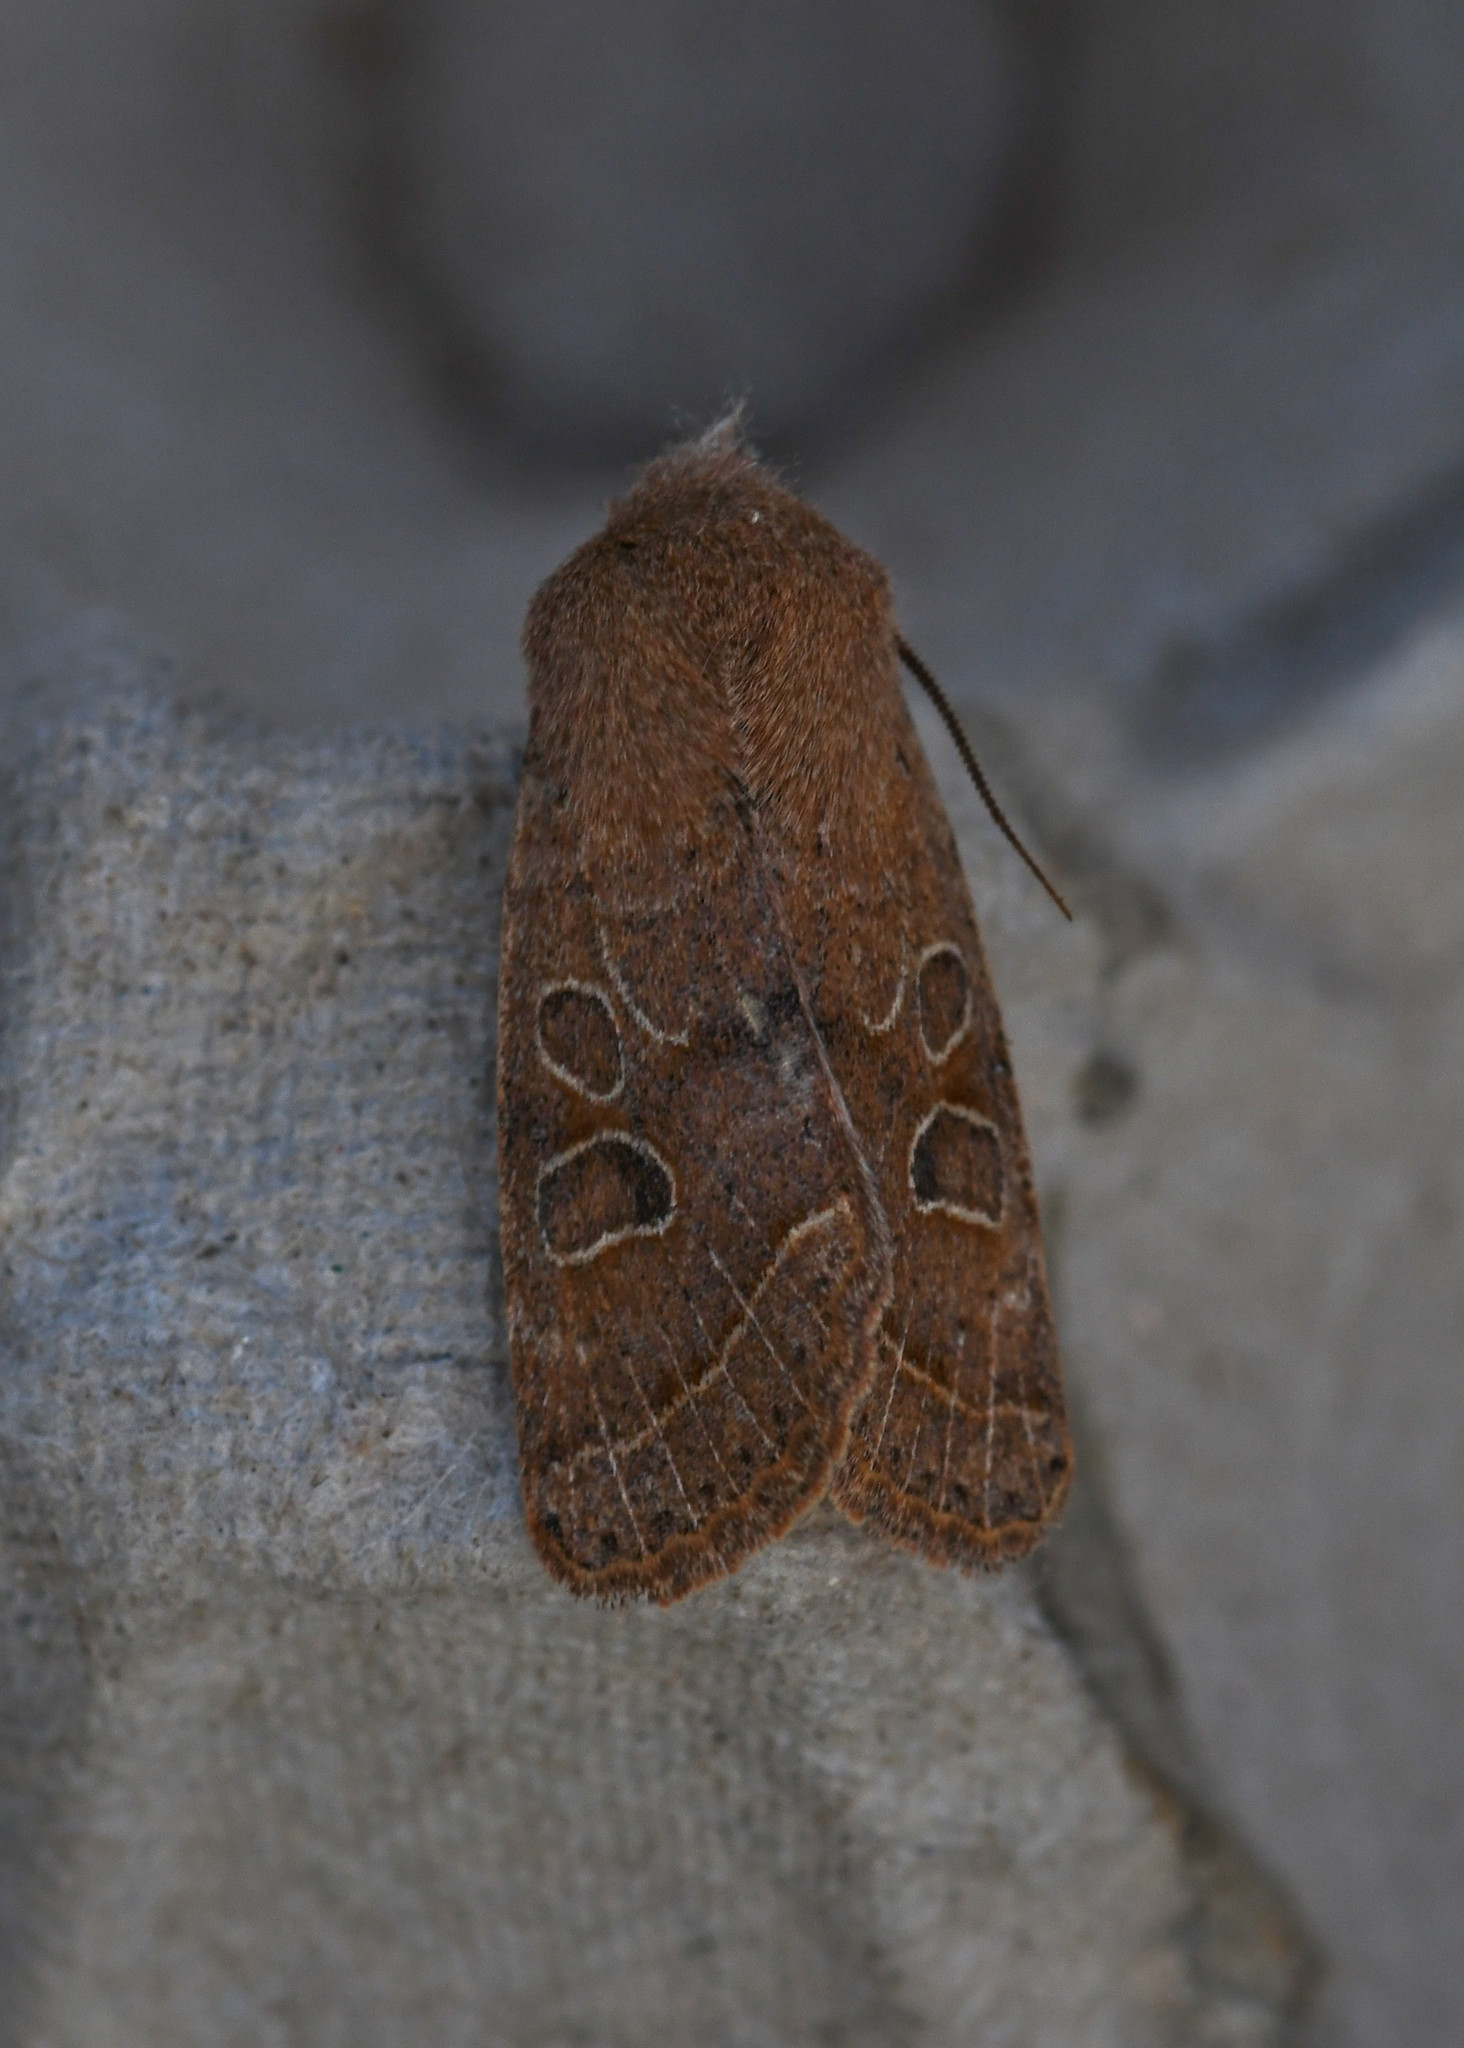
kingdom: Animalia
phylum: Arthropoda
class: Insecta
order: Lepidoptera
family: Noctuidae
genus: Orthosia
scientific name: Orthosia cerasi
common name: Common quaker
